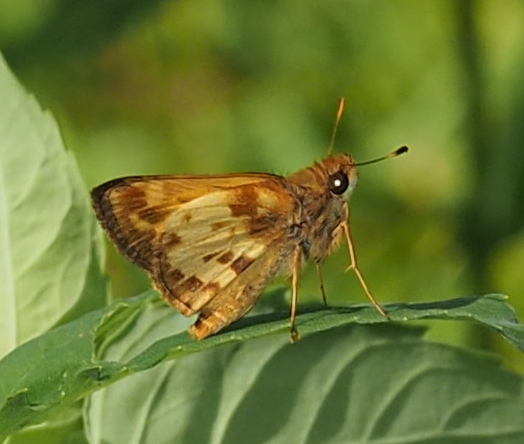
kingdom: Animalia
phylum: Arthropoda
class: Insecta
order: Lepidoptera
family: Hesperiidae
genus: Lon
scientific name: Lon zabulon
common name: Zabulon skipper
